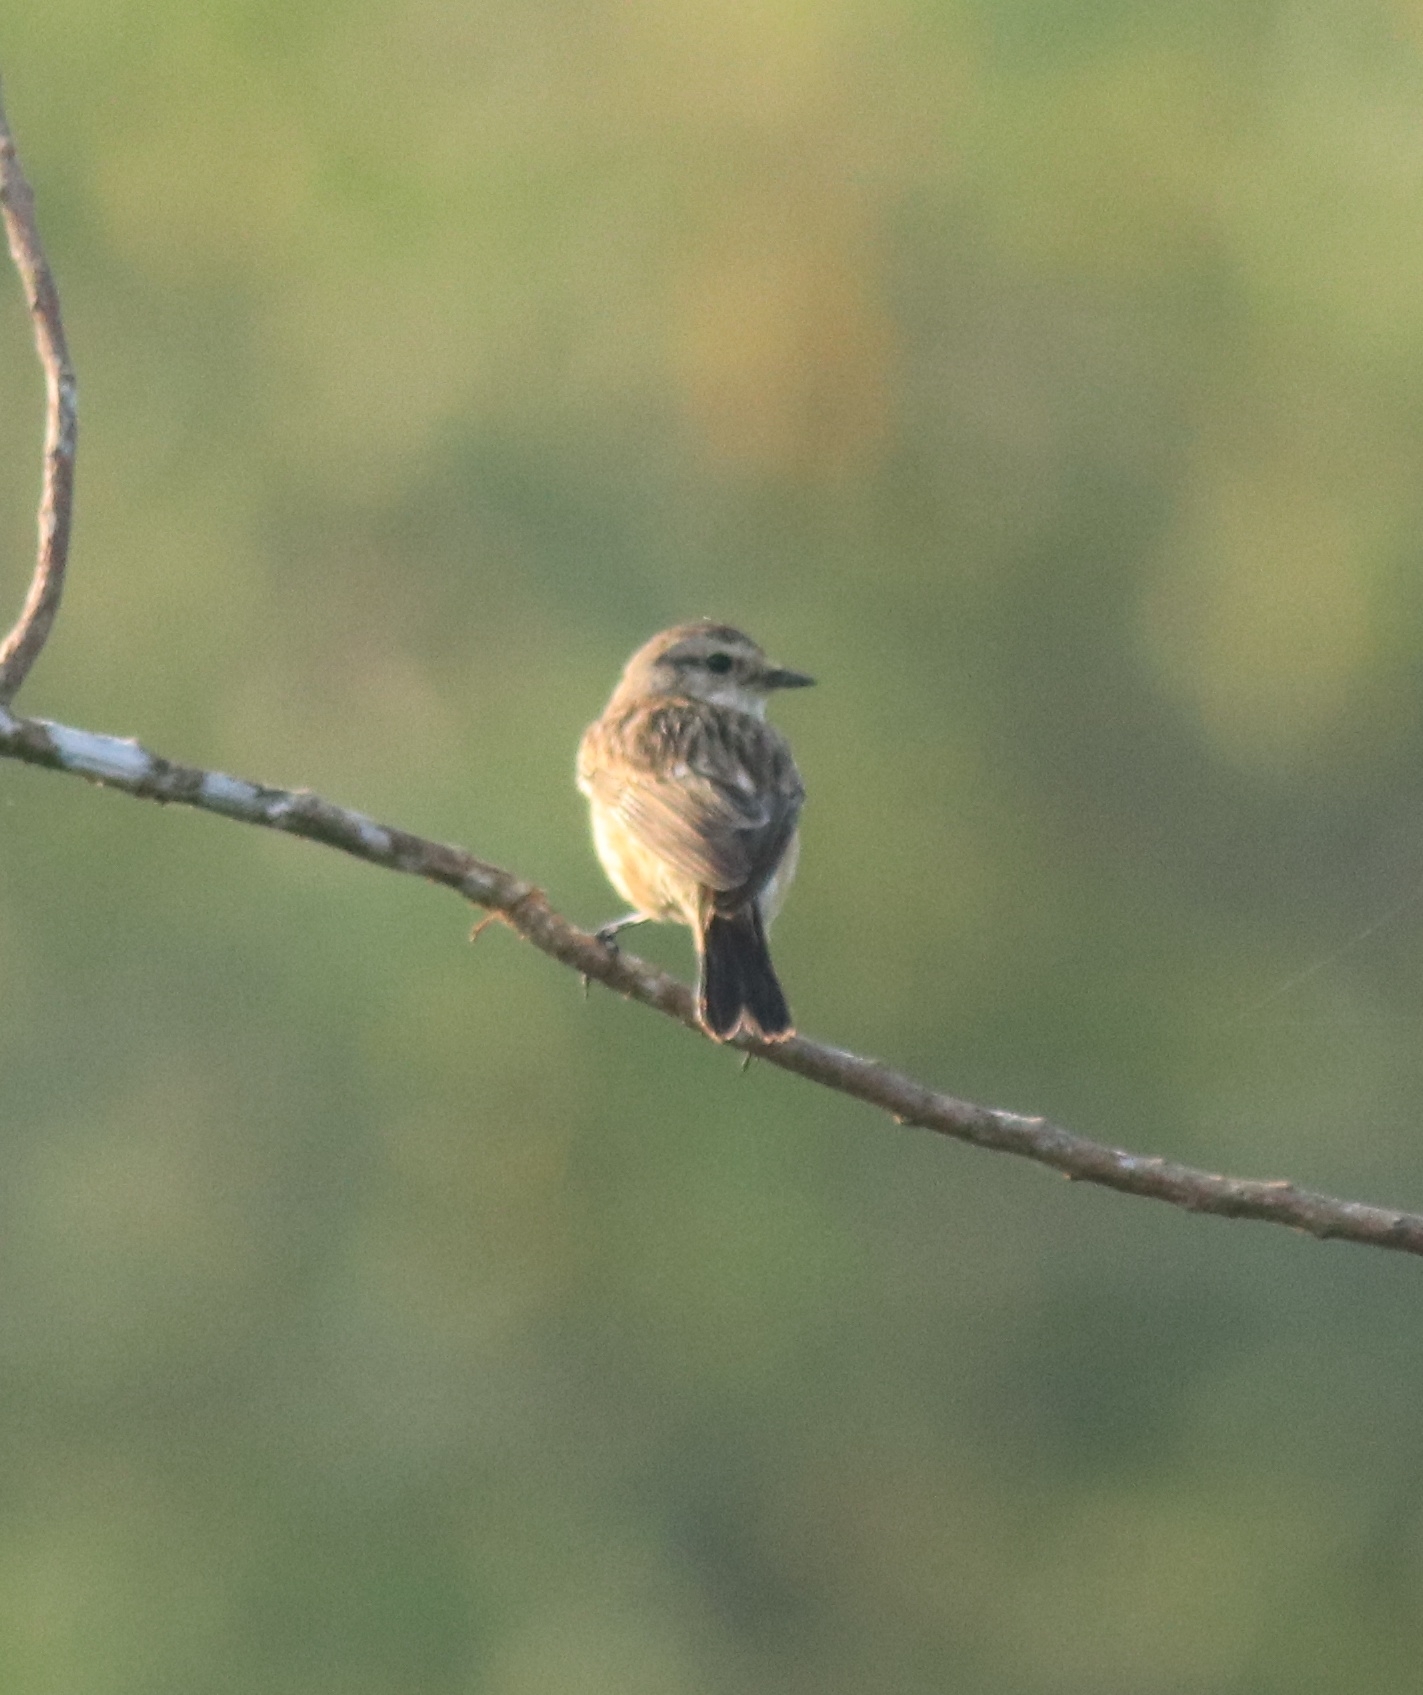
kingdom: Animalia
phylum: Chordata
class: Aves
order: Passeriformes
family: Muscicapidae
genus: Saxicola
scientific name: Saxicola maurus
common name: Siberian stonechat
